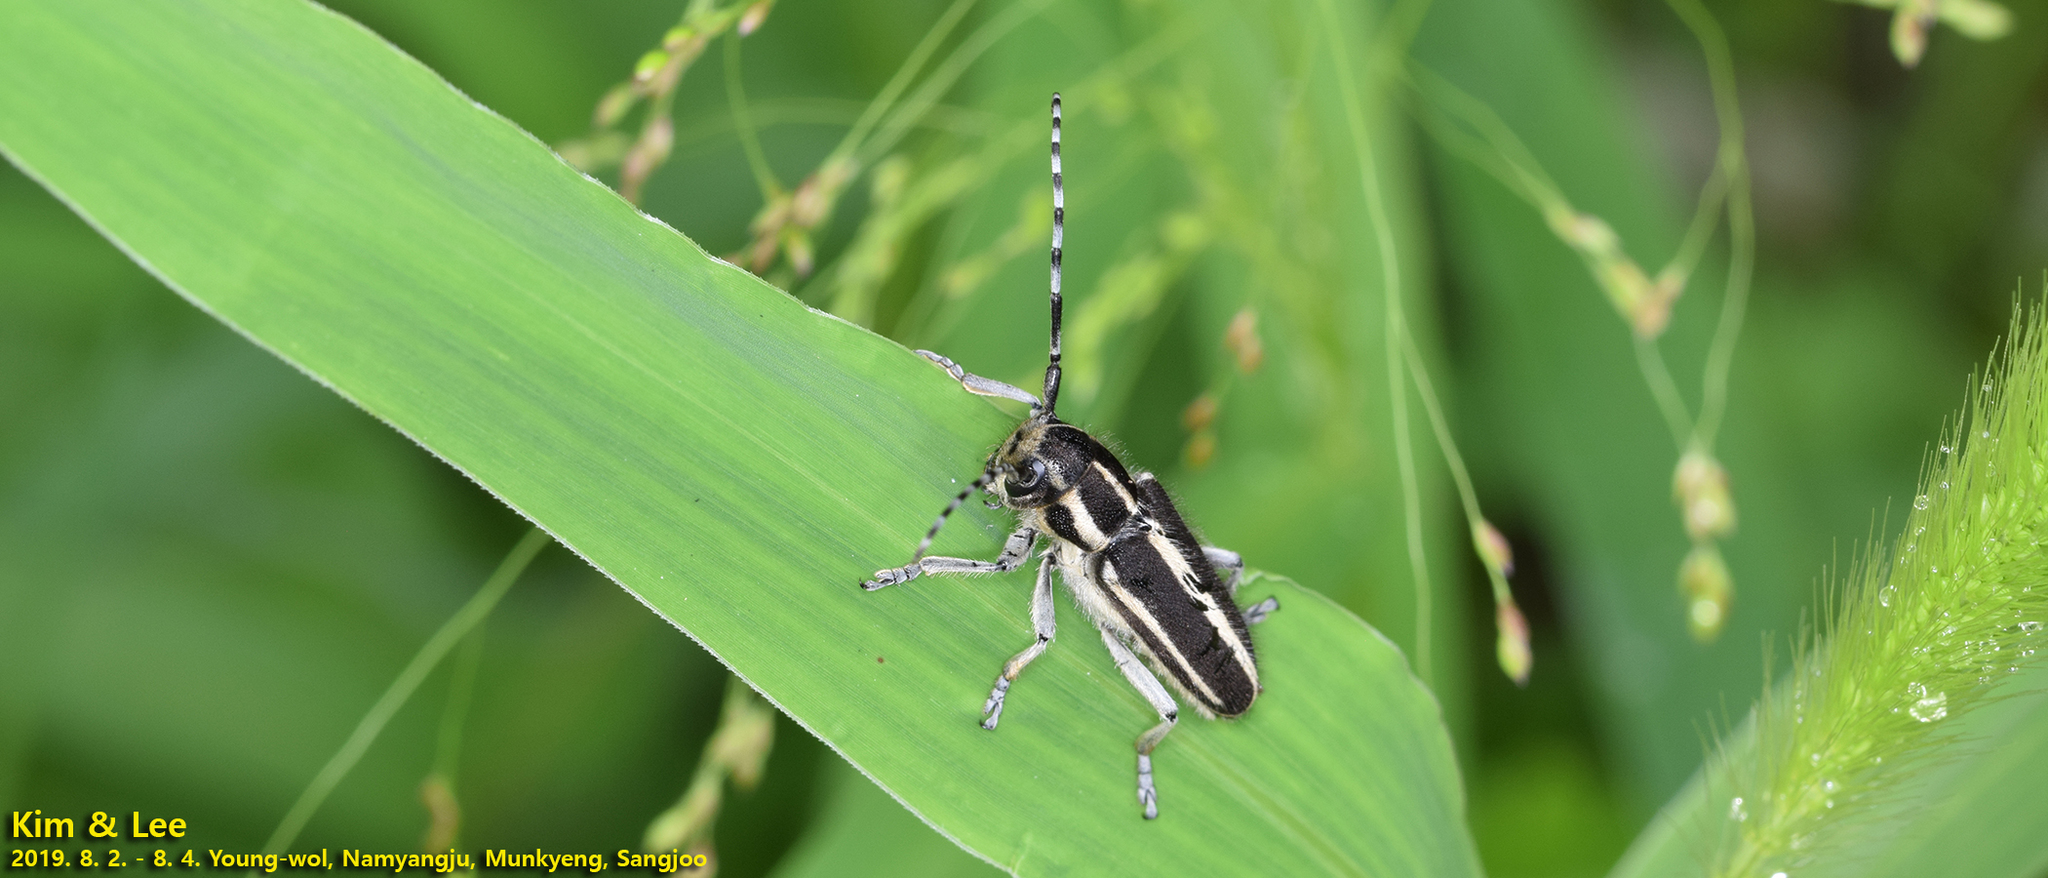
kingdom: Animalia
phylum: Arthropoda
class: Insecta
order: Coleoptera
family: Cerambycidae
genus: Thyestilla
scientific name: Thyestilla gebleri
